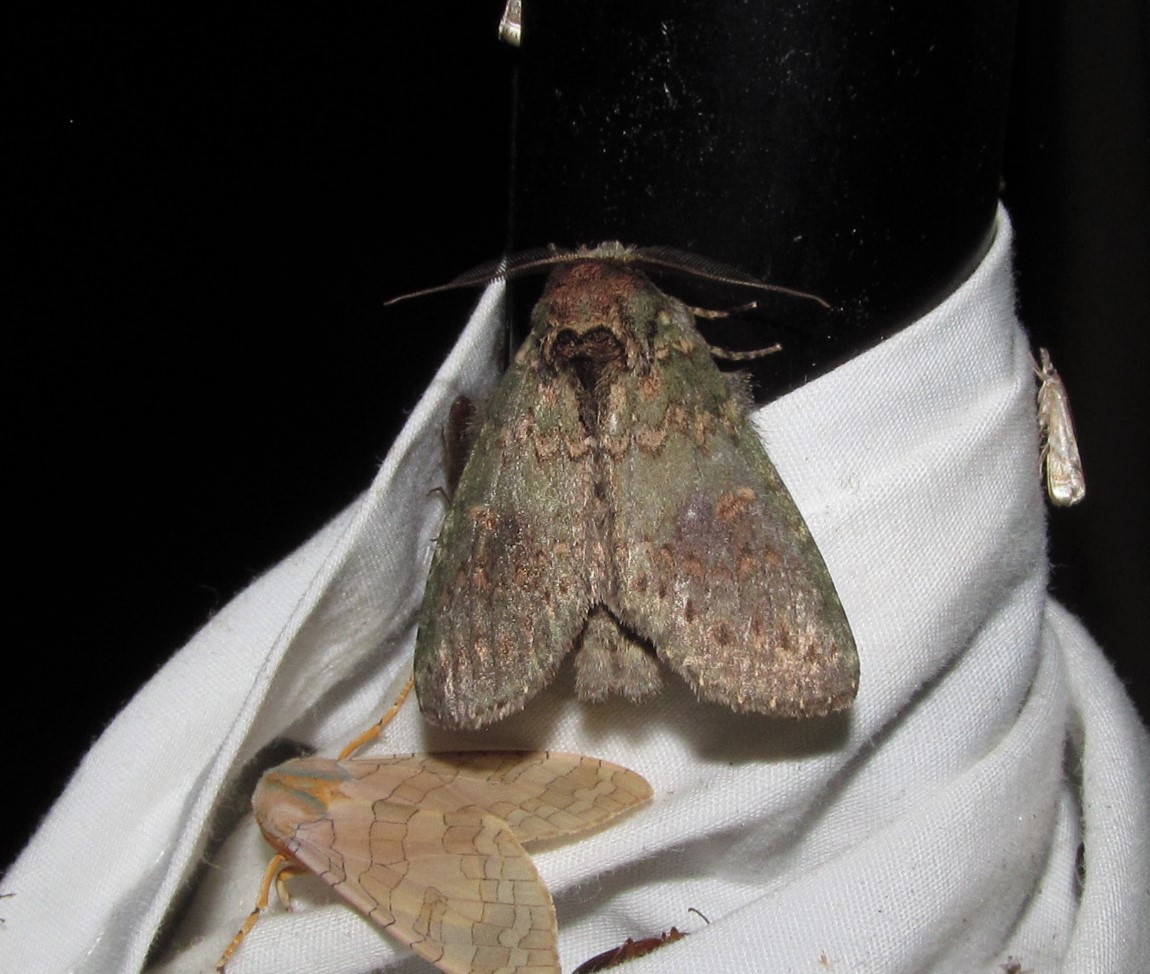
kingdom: Animalia
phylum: Arthropoda
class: Insecta
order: Lepidoptera
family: Notodontidae
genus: Disphragis
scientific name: Disphragis Cecrita biundata
